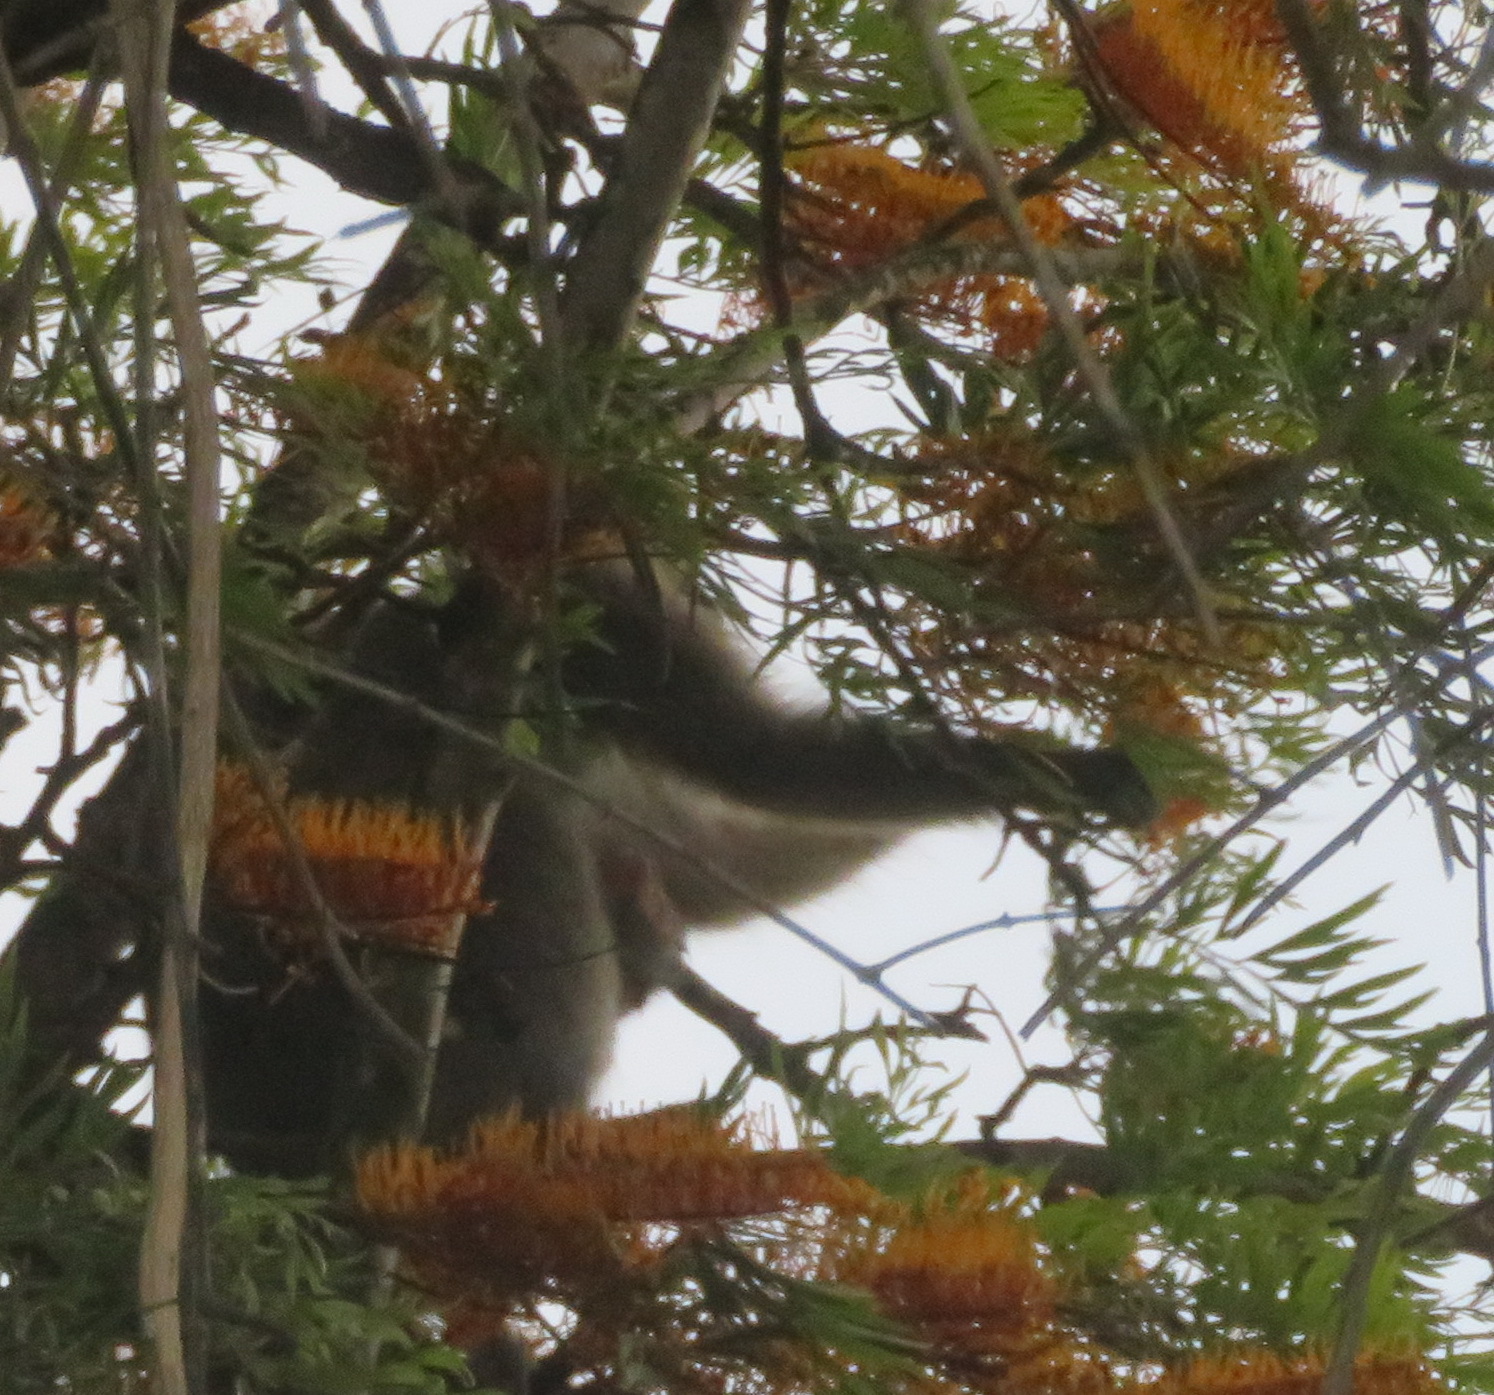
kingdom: Animalia
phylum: Chordata
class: Mammalia
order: Primates
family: Cercopithecidae
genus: Chlorocebus
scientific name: Chlorocebus pygerythrus
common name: Vervet monkey
